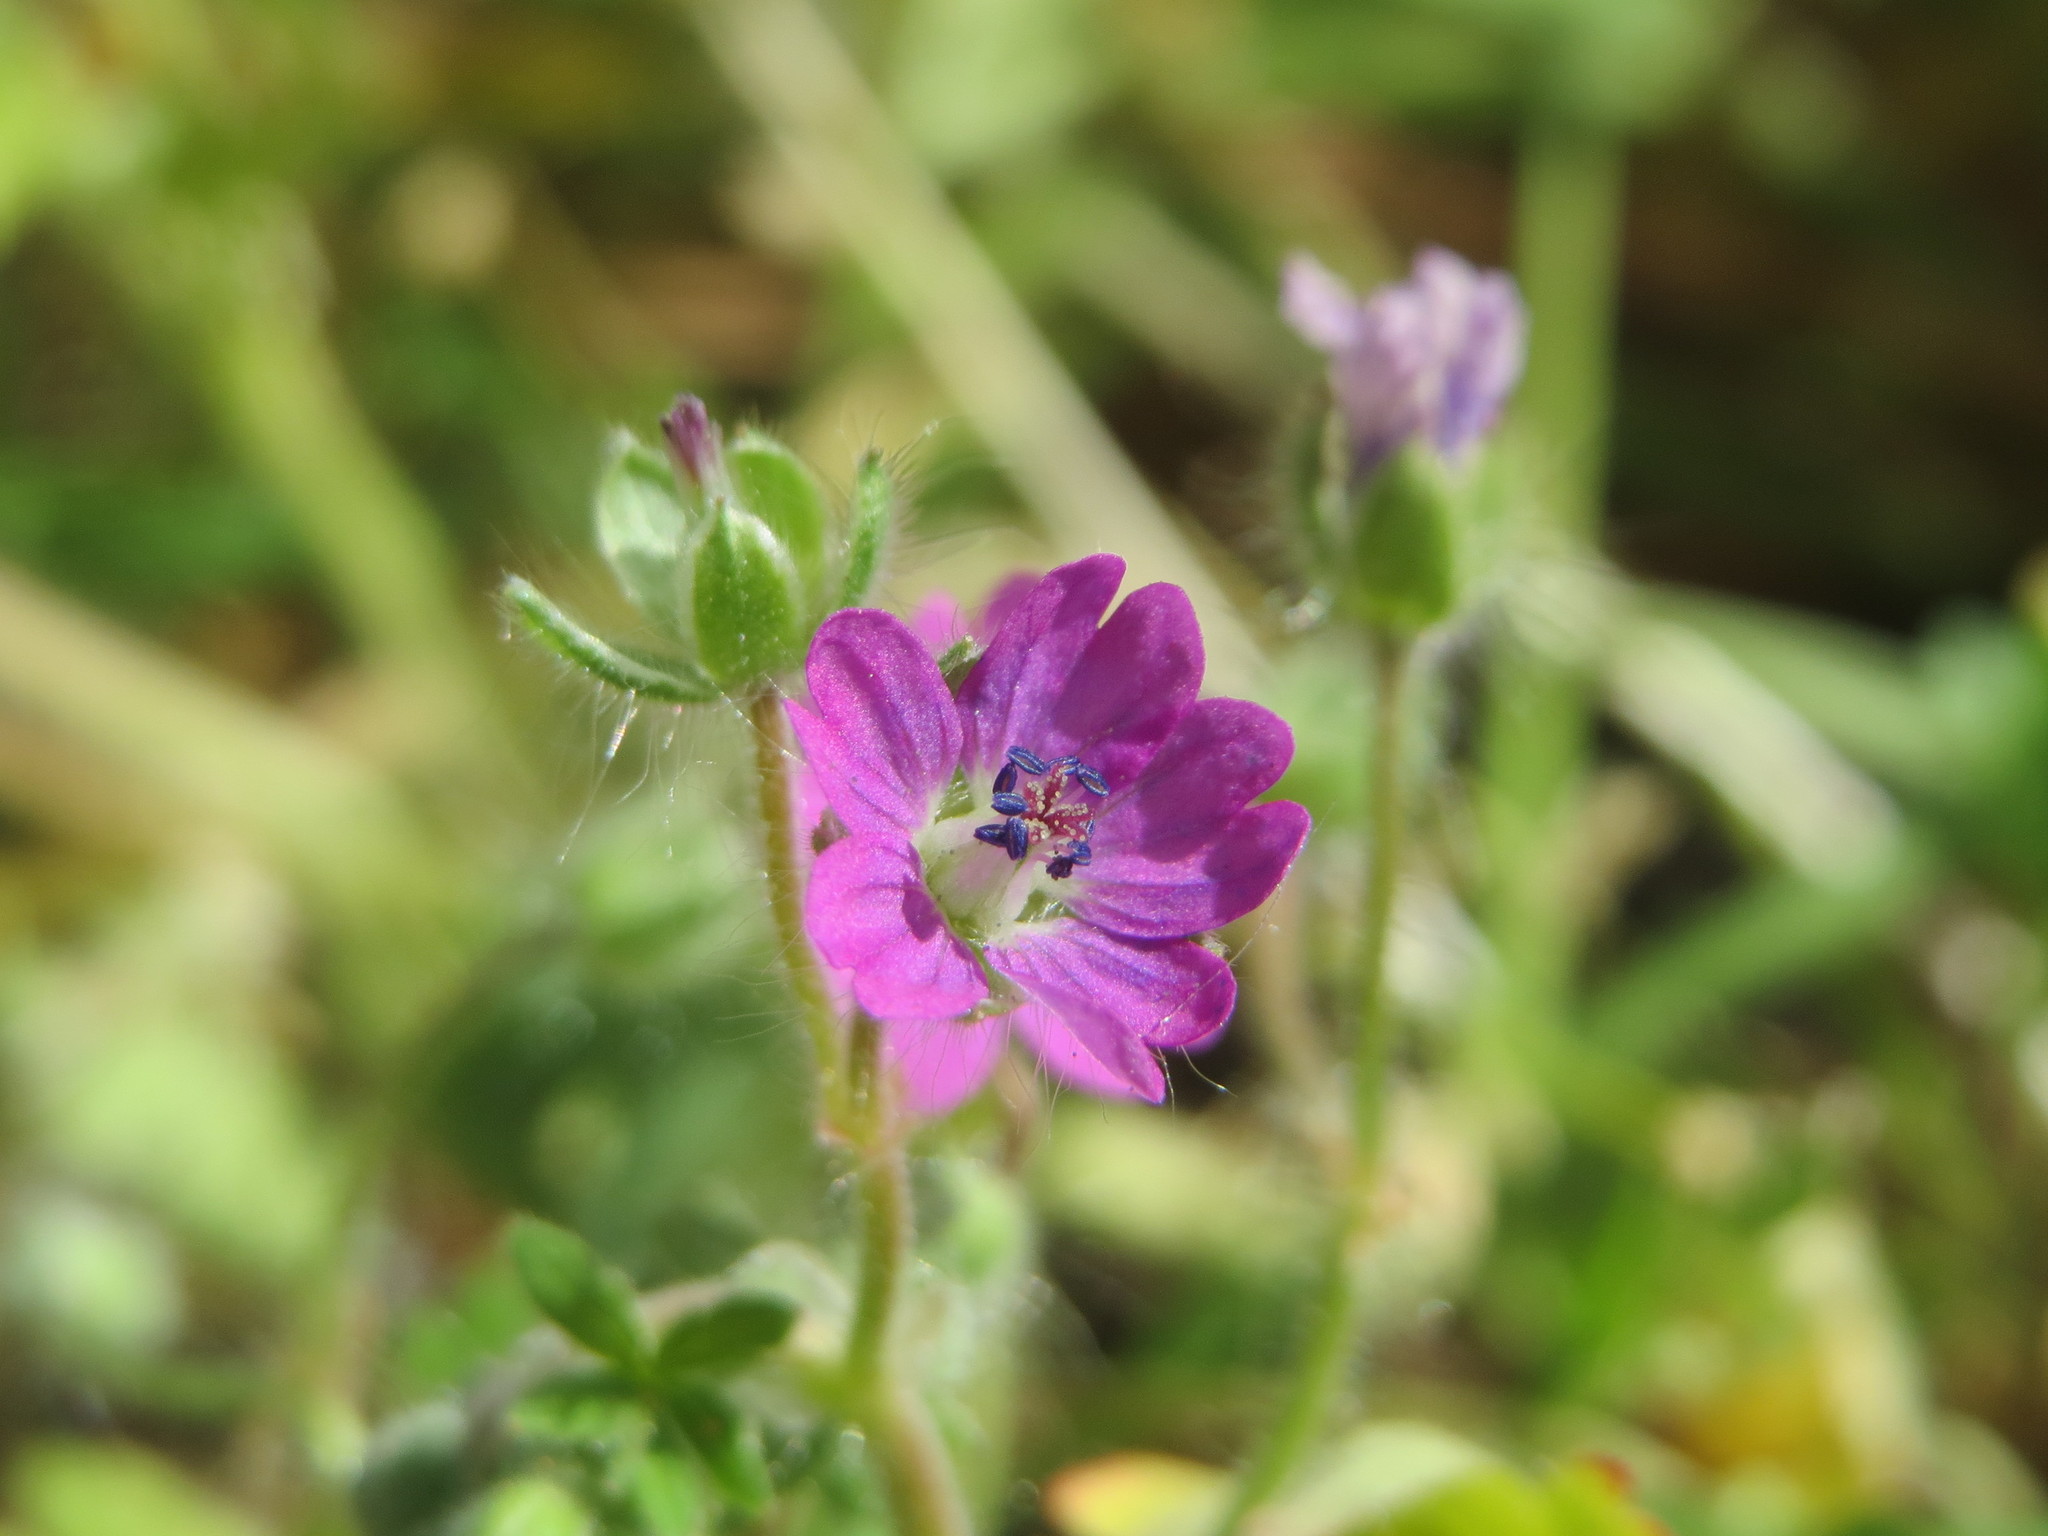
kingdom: Plantae
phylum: Tracheophyta
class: Magnoliopsida
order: Geraniales
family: Geraniaceae
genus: Geranium
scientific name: Geranium molle
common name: Dove's-foot crane's-bill
